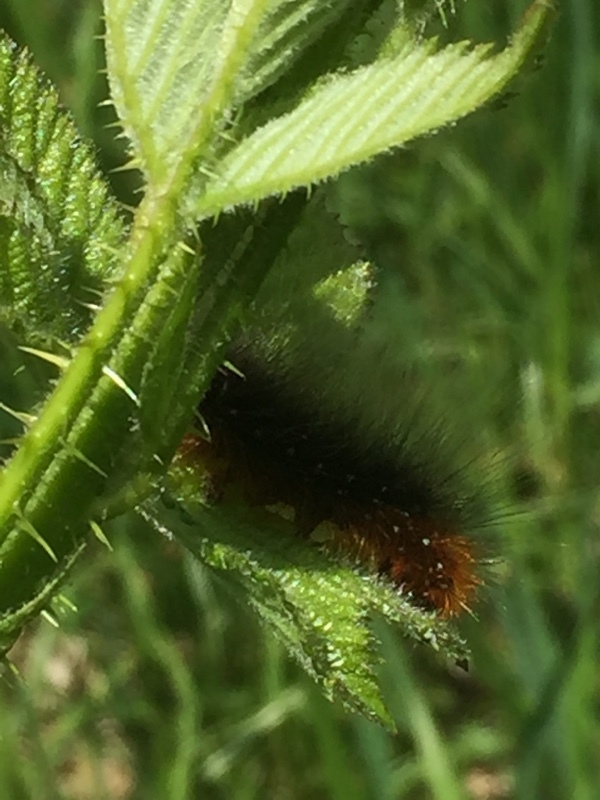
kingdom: Animalia
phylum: Arthropoda
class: Insecta
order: Lepidoptera
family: Erebidae
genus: Arctia
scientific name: Arctia caja
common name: Garden tiger
